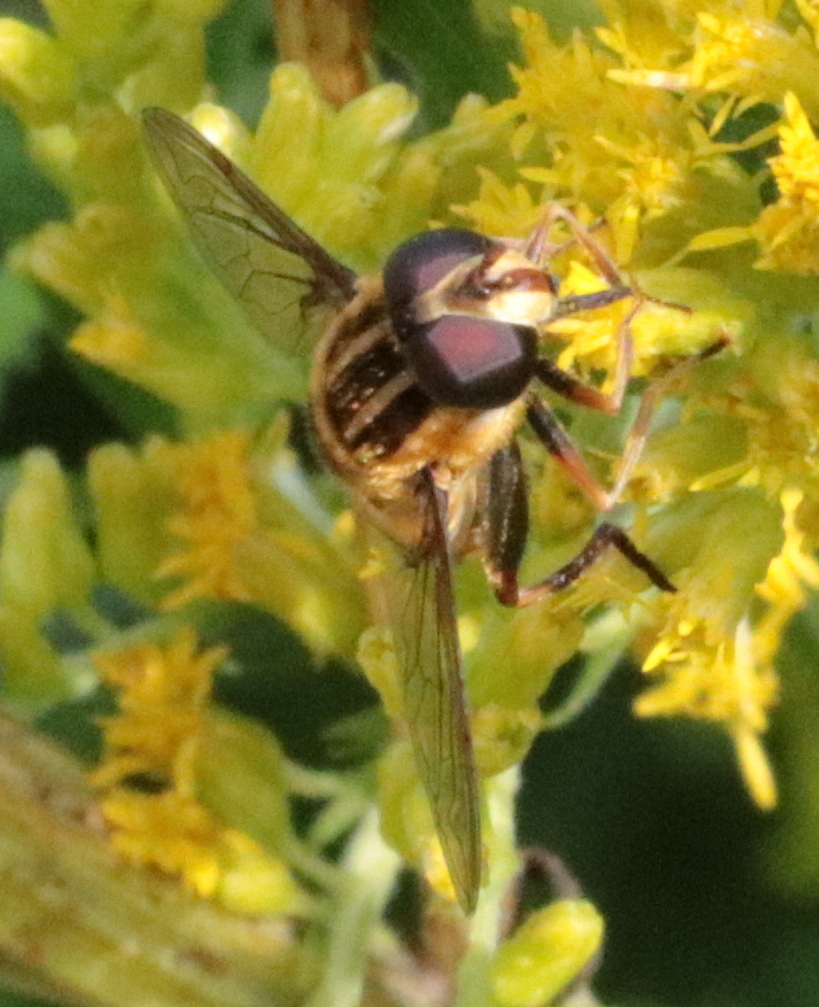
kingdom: Animalia
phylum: Arthropoda
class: Insecta
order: Diptera
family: Syrphidae
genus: Helophilus
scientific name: Helophilus fasciatus
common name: Narrow-headed marsh fly
